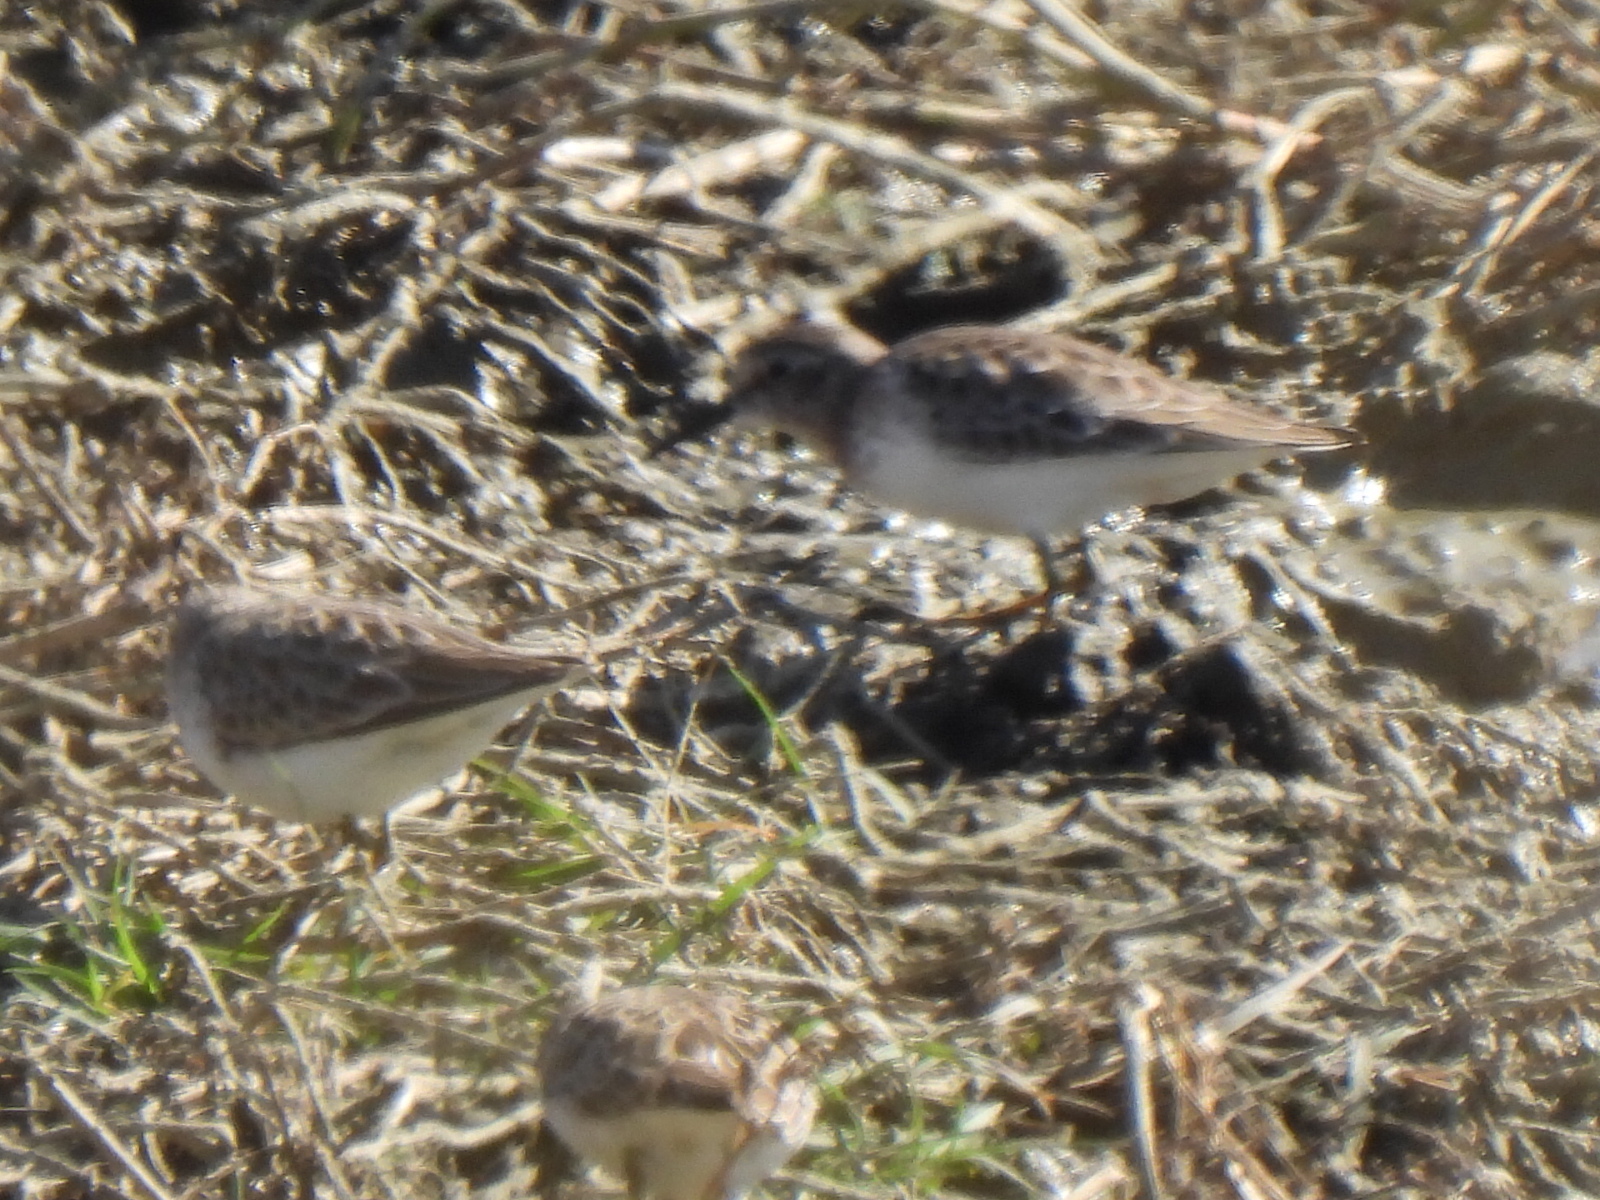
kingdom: Animalia
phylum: Chordata
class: Aves
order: Charadriiformes
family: Scolopacidae
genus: Calidris
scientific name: Calidris minutilla
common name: Least sandpiper
